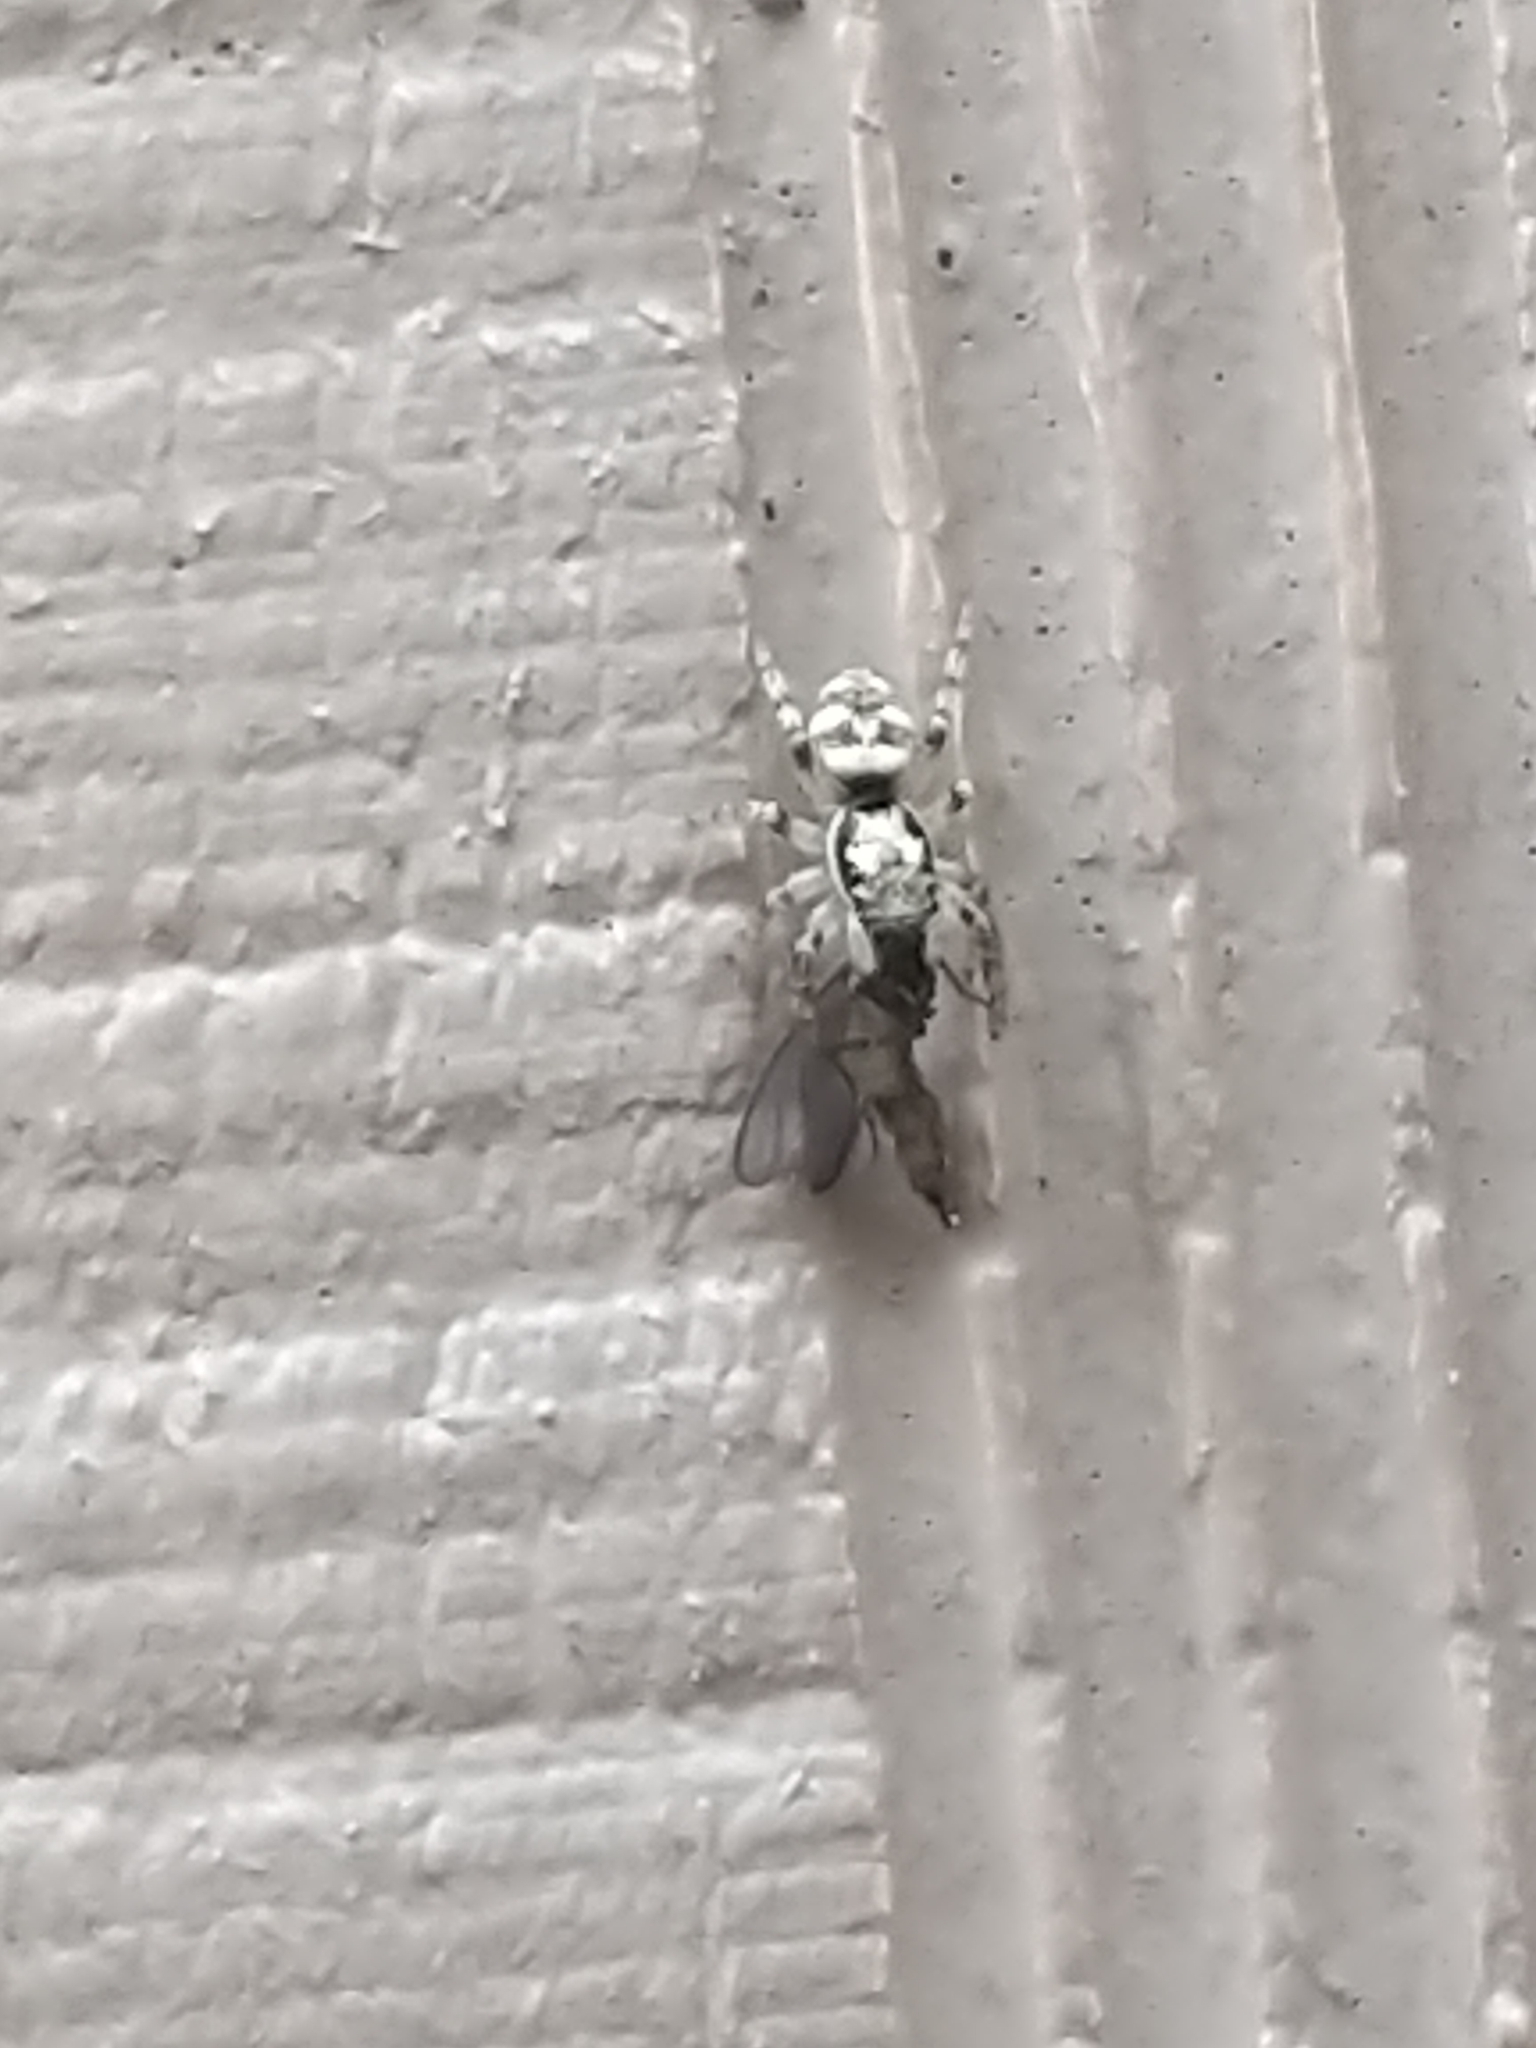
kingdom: Animalia
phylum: Arthropoda
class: Arachnida
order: Araneae
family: Salticidae
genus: Salticus
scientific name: Salticus scenicus
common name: Zebra jumper
